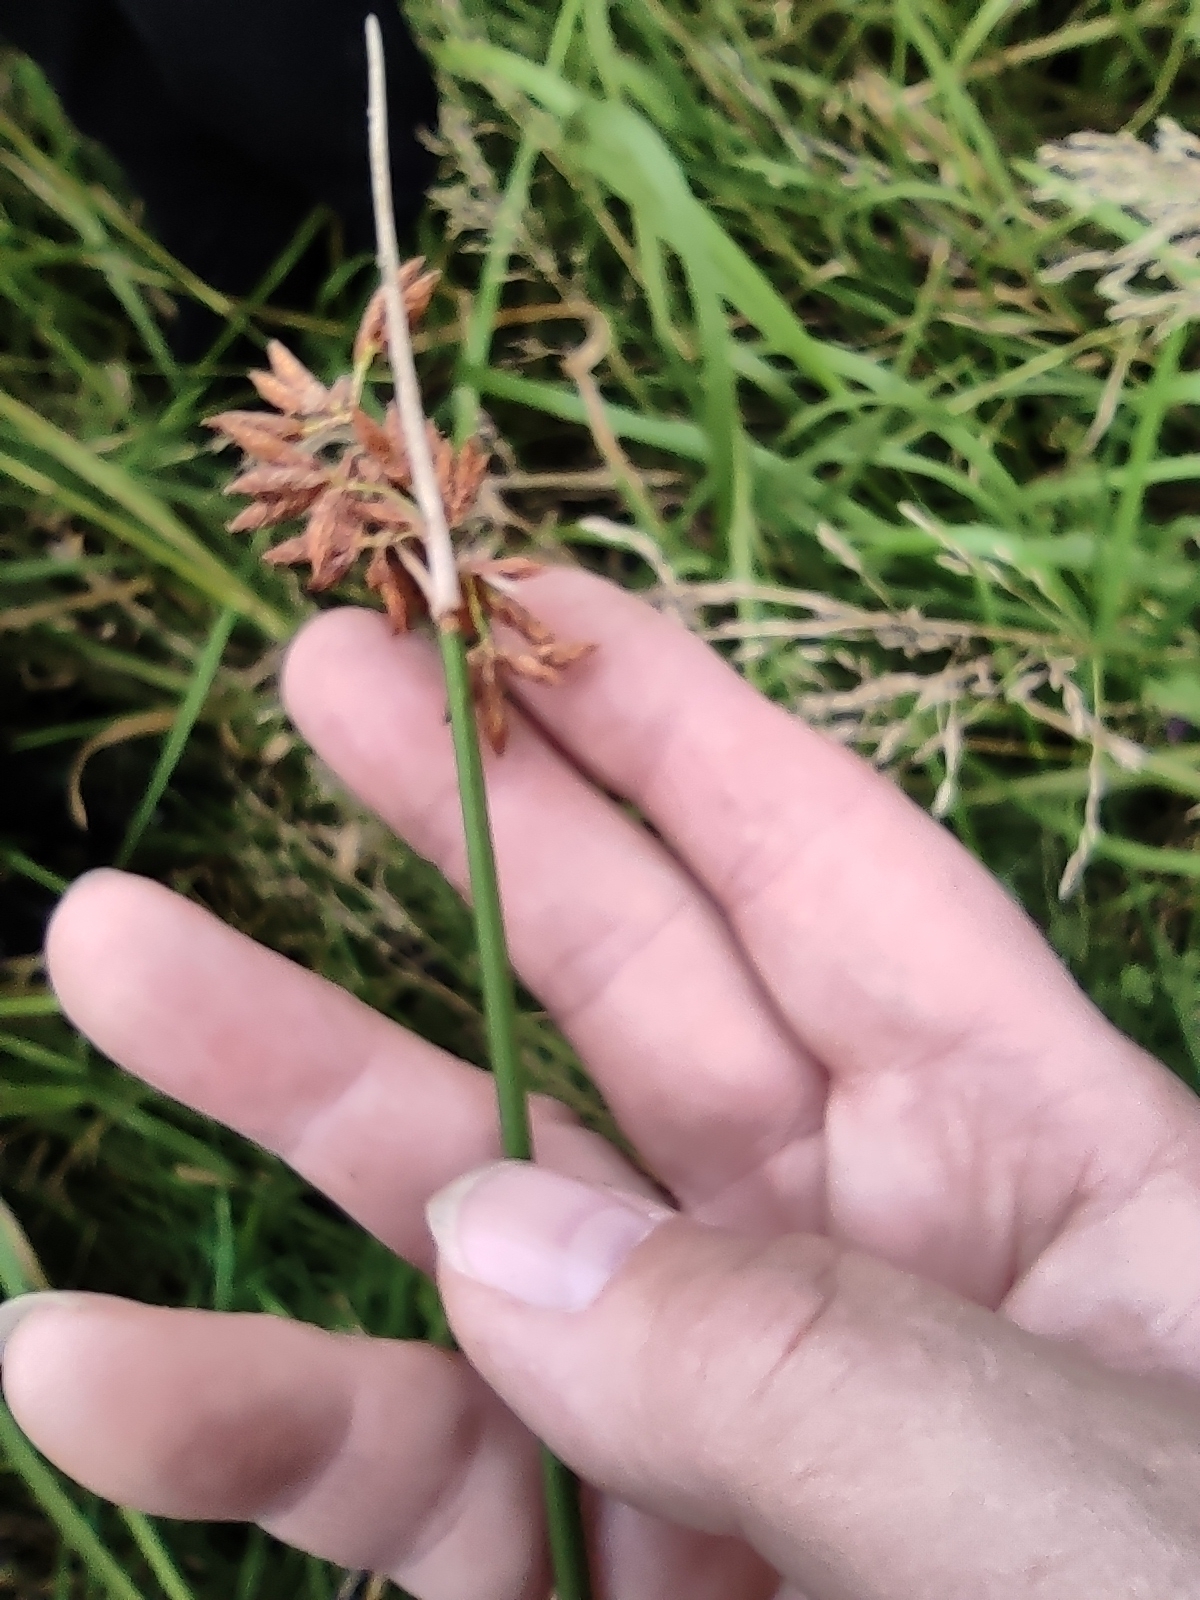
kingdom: Plantae
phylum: Tracheophyta
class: Liliopsida
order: Poales
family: Cyperaceae
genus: Schoenoplectus
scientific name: Schoenoplectus lacustris
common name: Common club-rush
